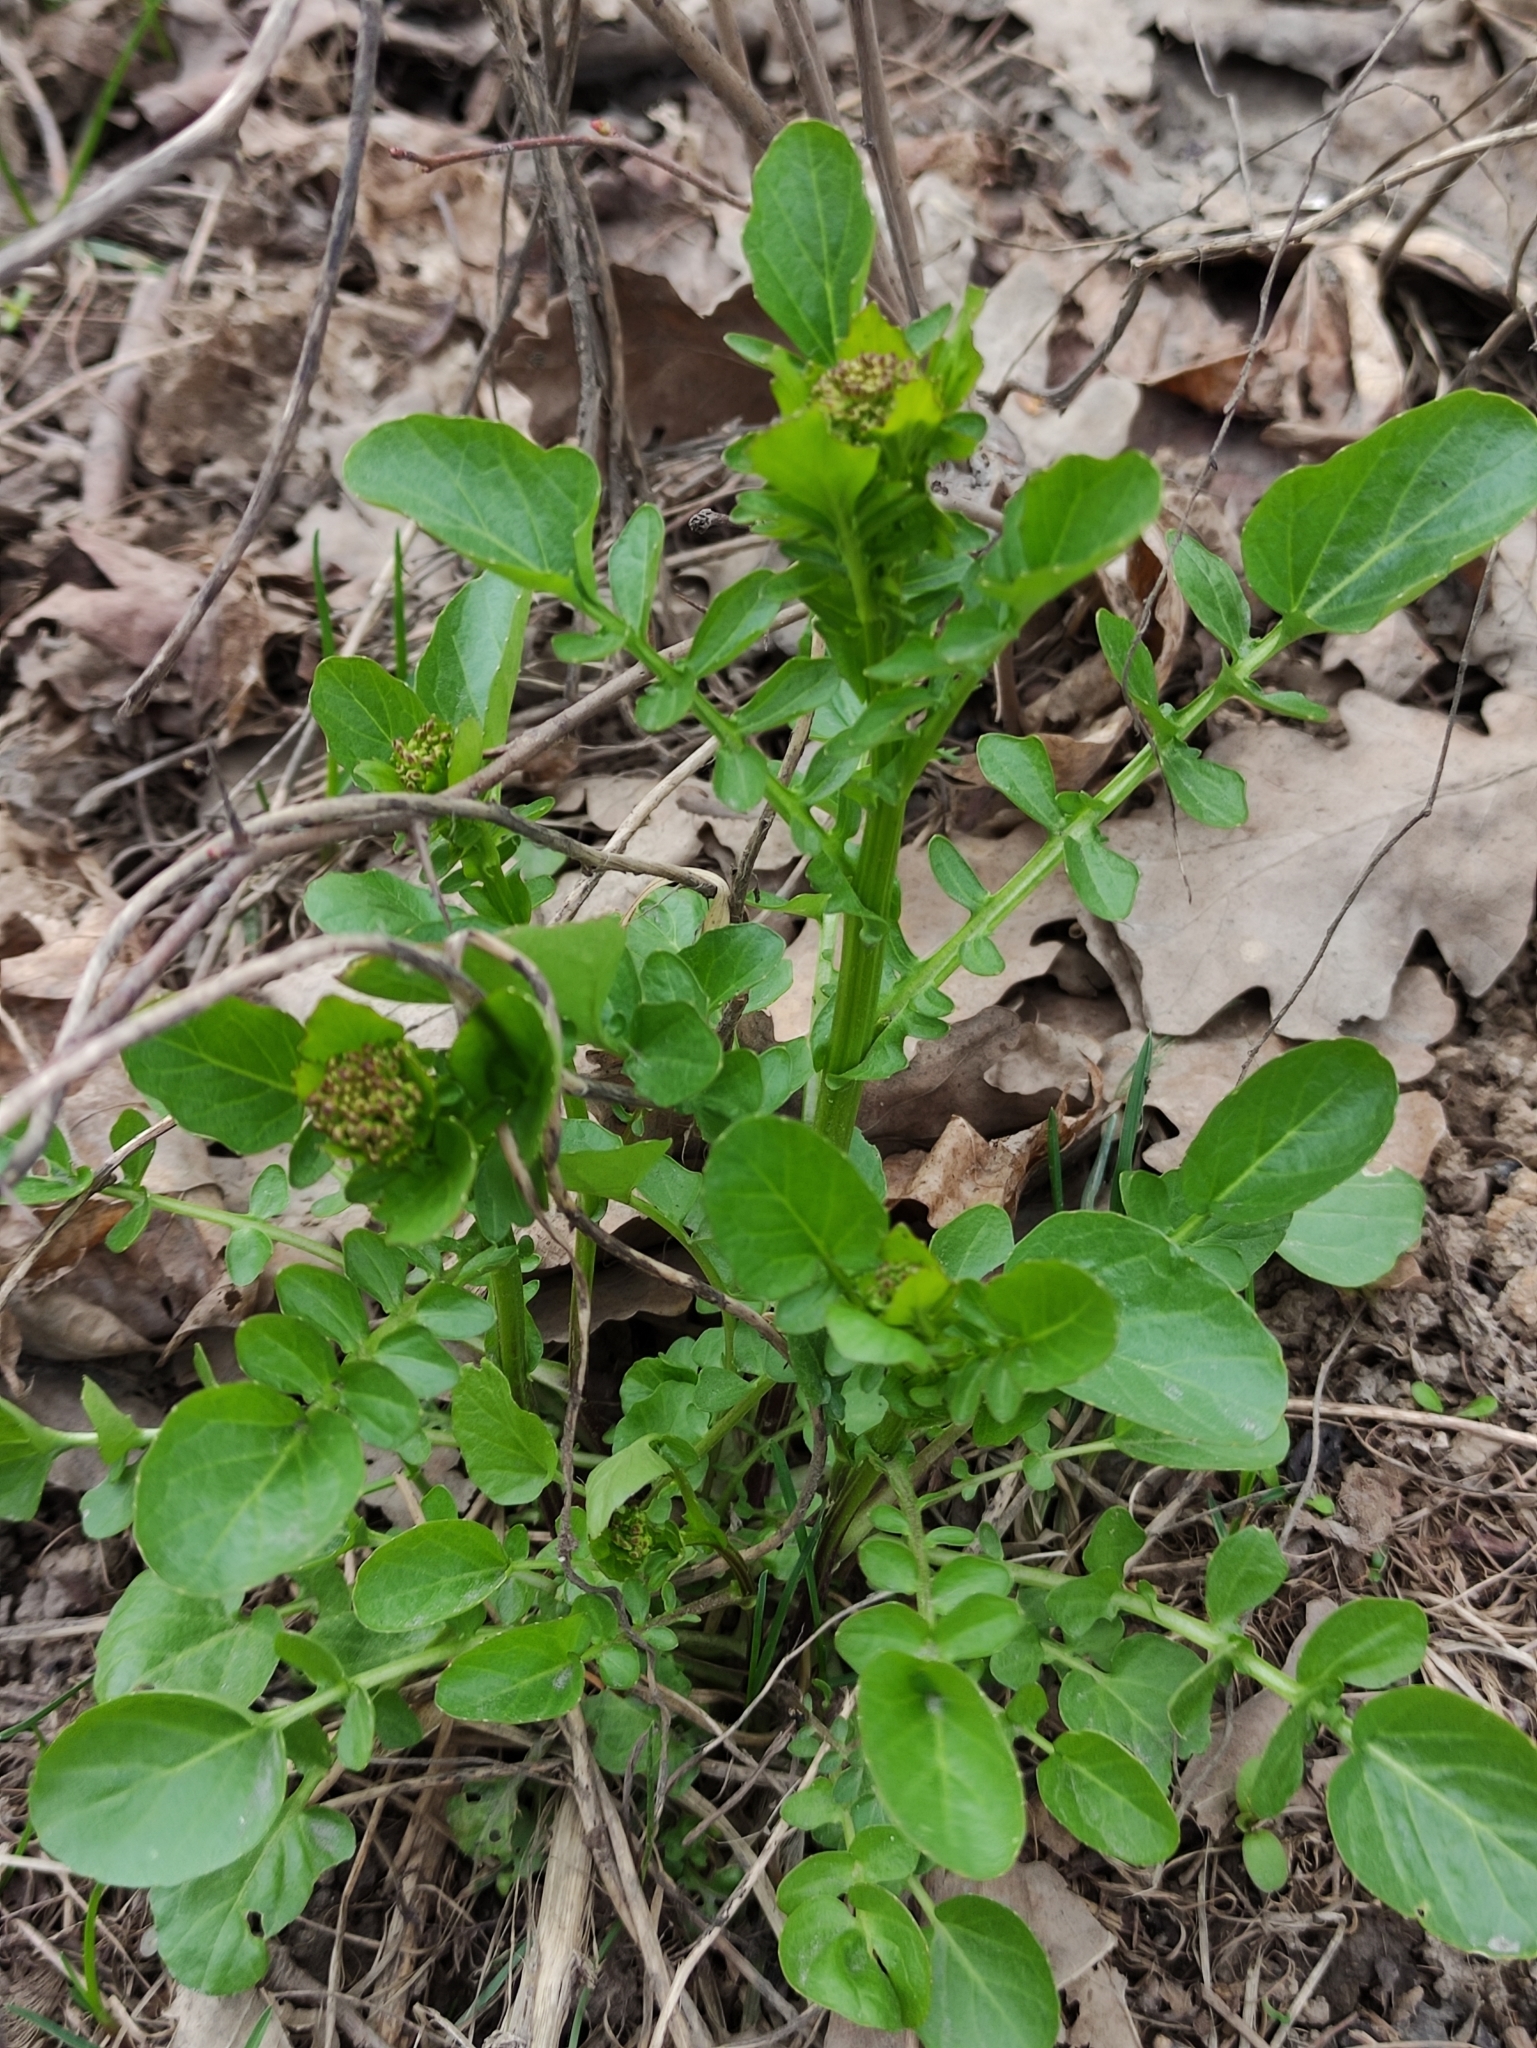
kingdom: Plantae
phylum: Tracheophyta
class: Magnoliopsida
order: Brassicales
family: Brassicaceae
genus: Barbarea
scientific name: Barbarea vulgaris
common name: Cressy-greens
